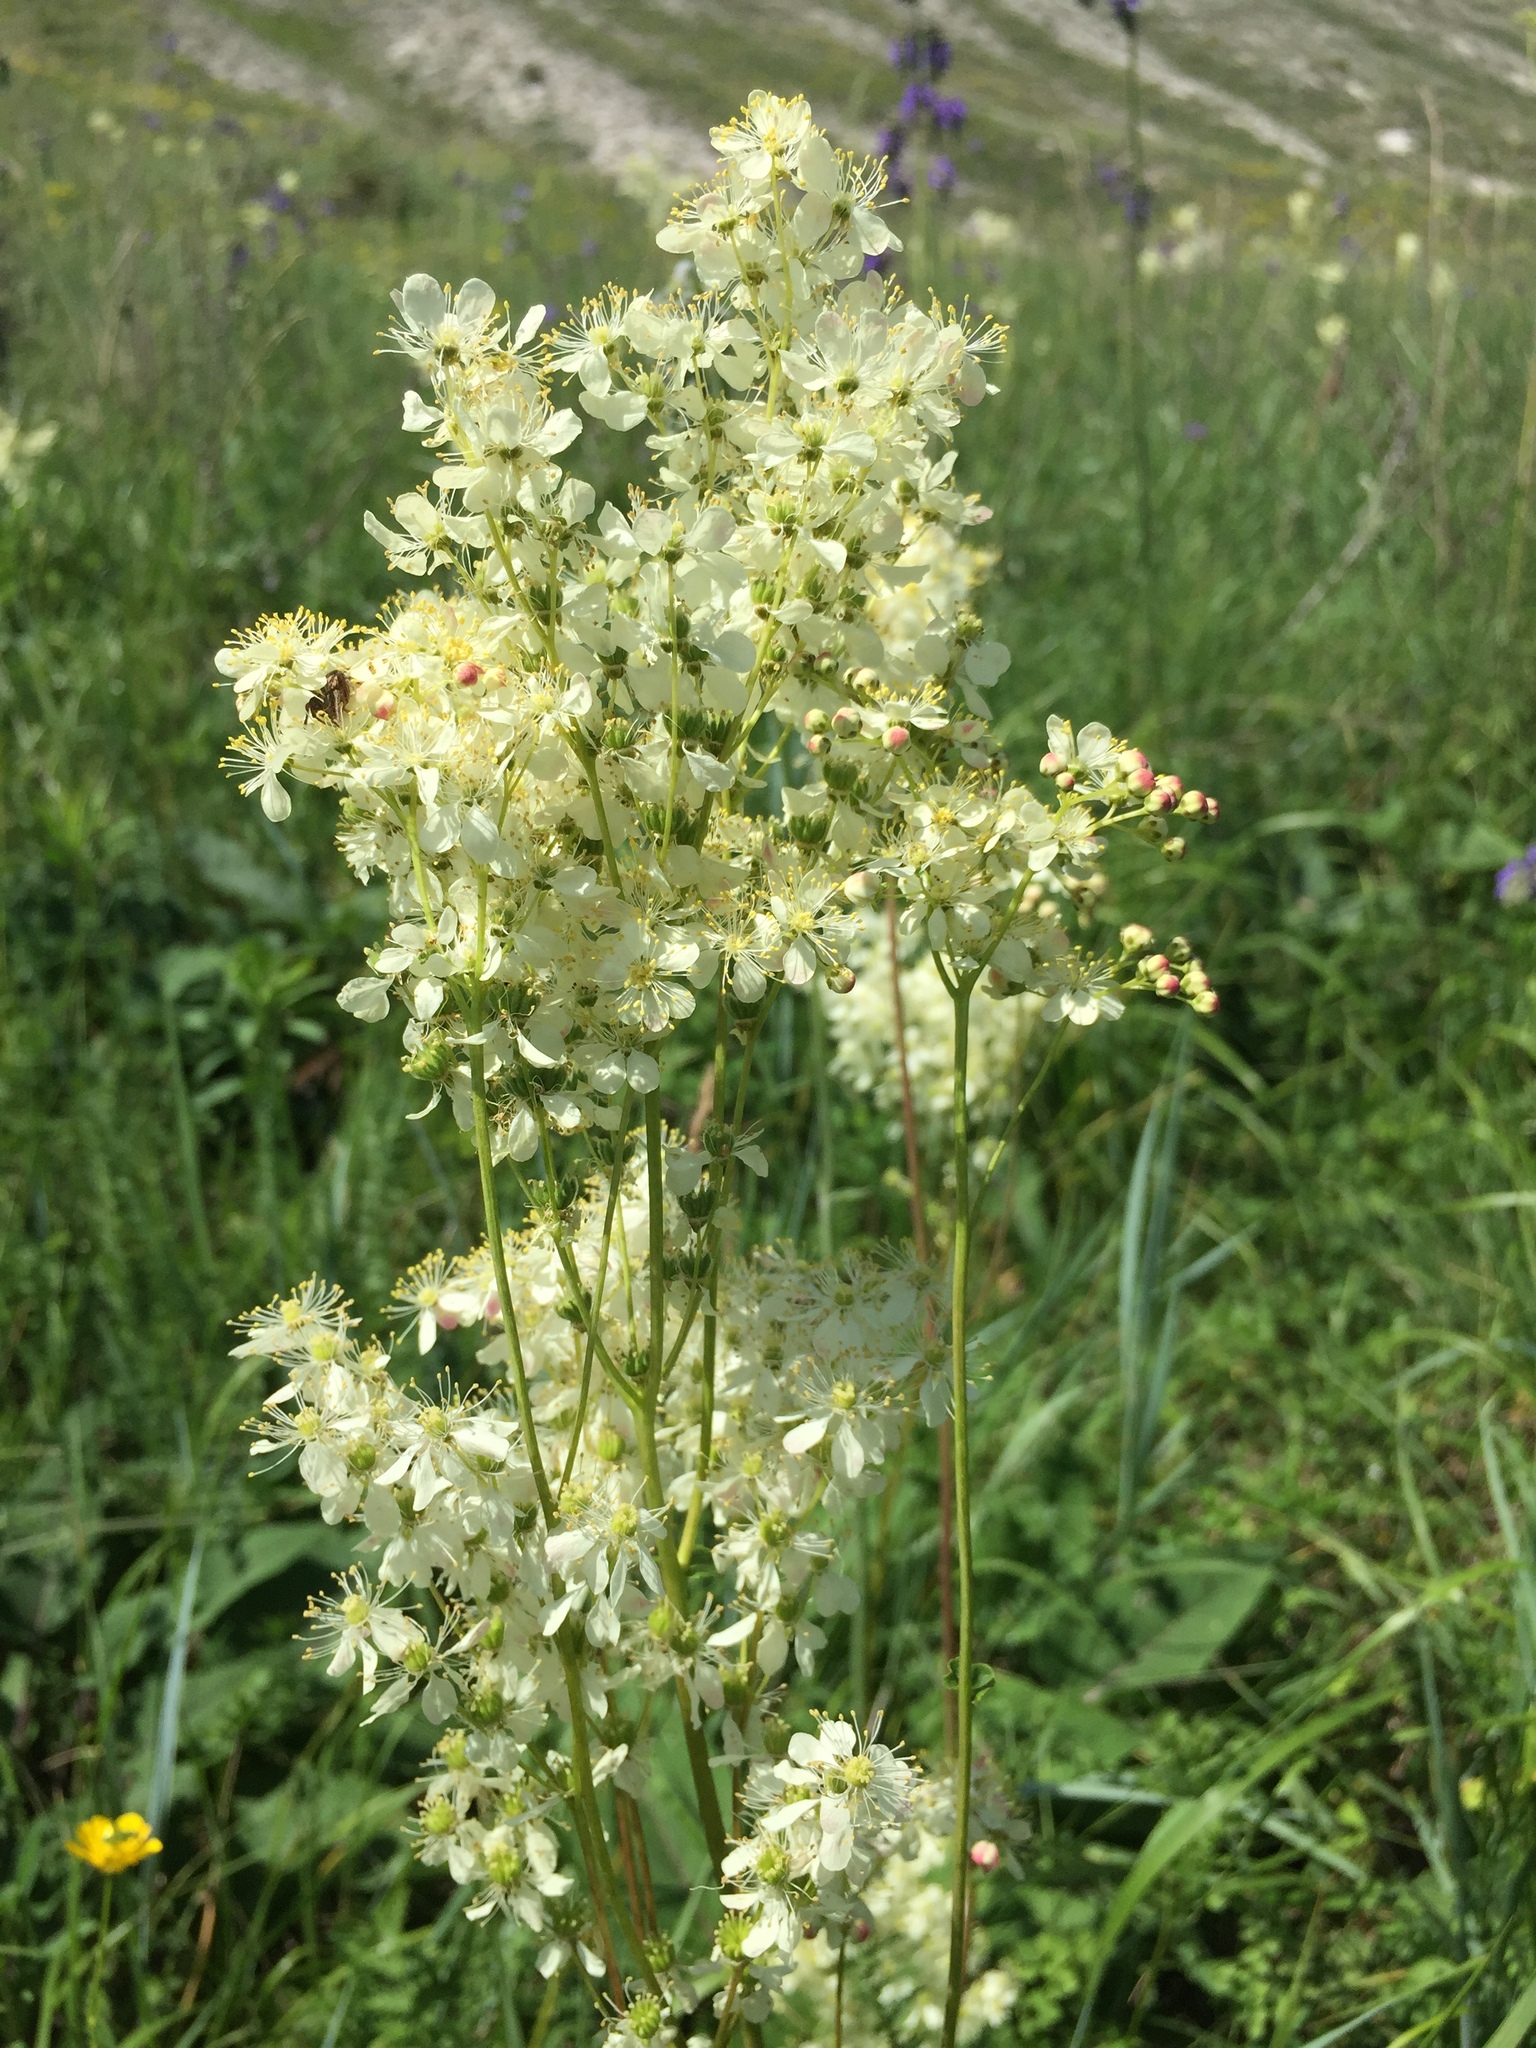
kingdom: Plantae
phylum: Tracheophyta
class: Magnoliopsida
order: Rosales
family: Rosaceae
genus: Filipendula
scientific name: Filipendula vulgaris
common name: Dropwort
